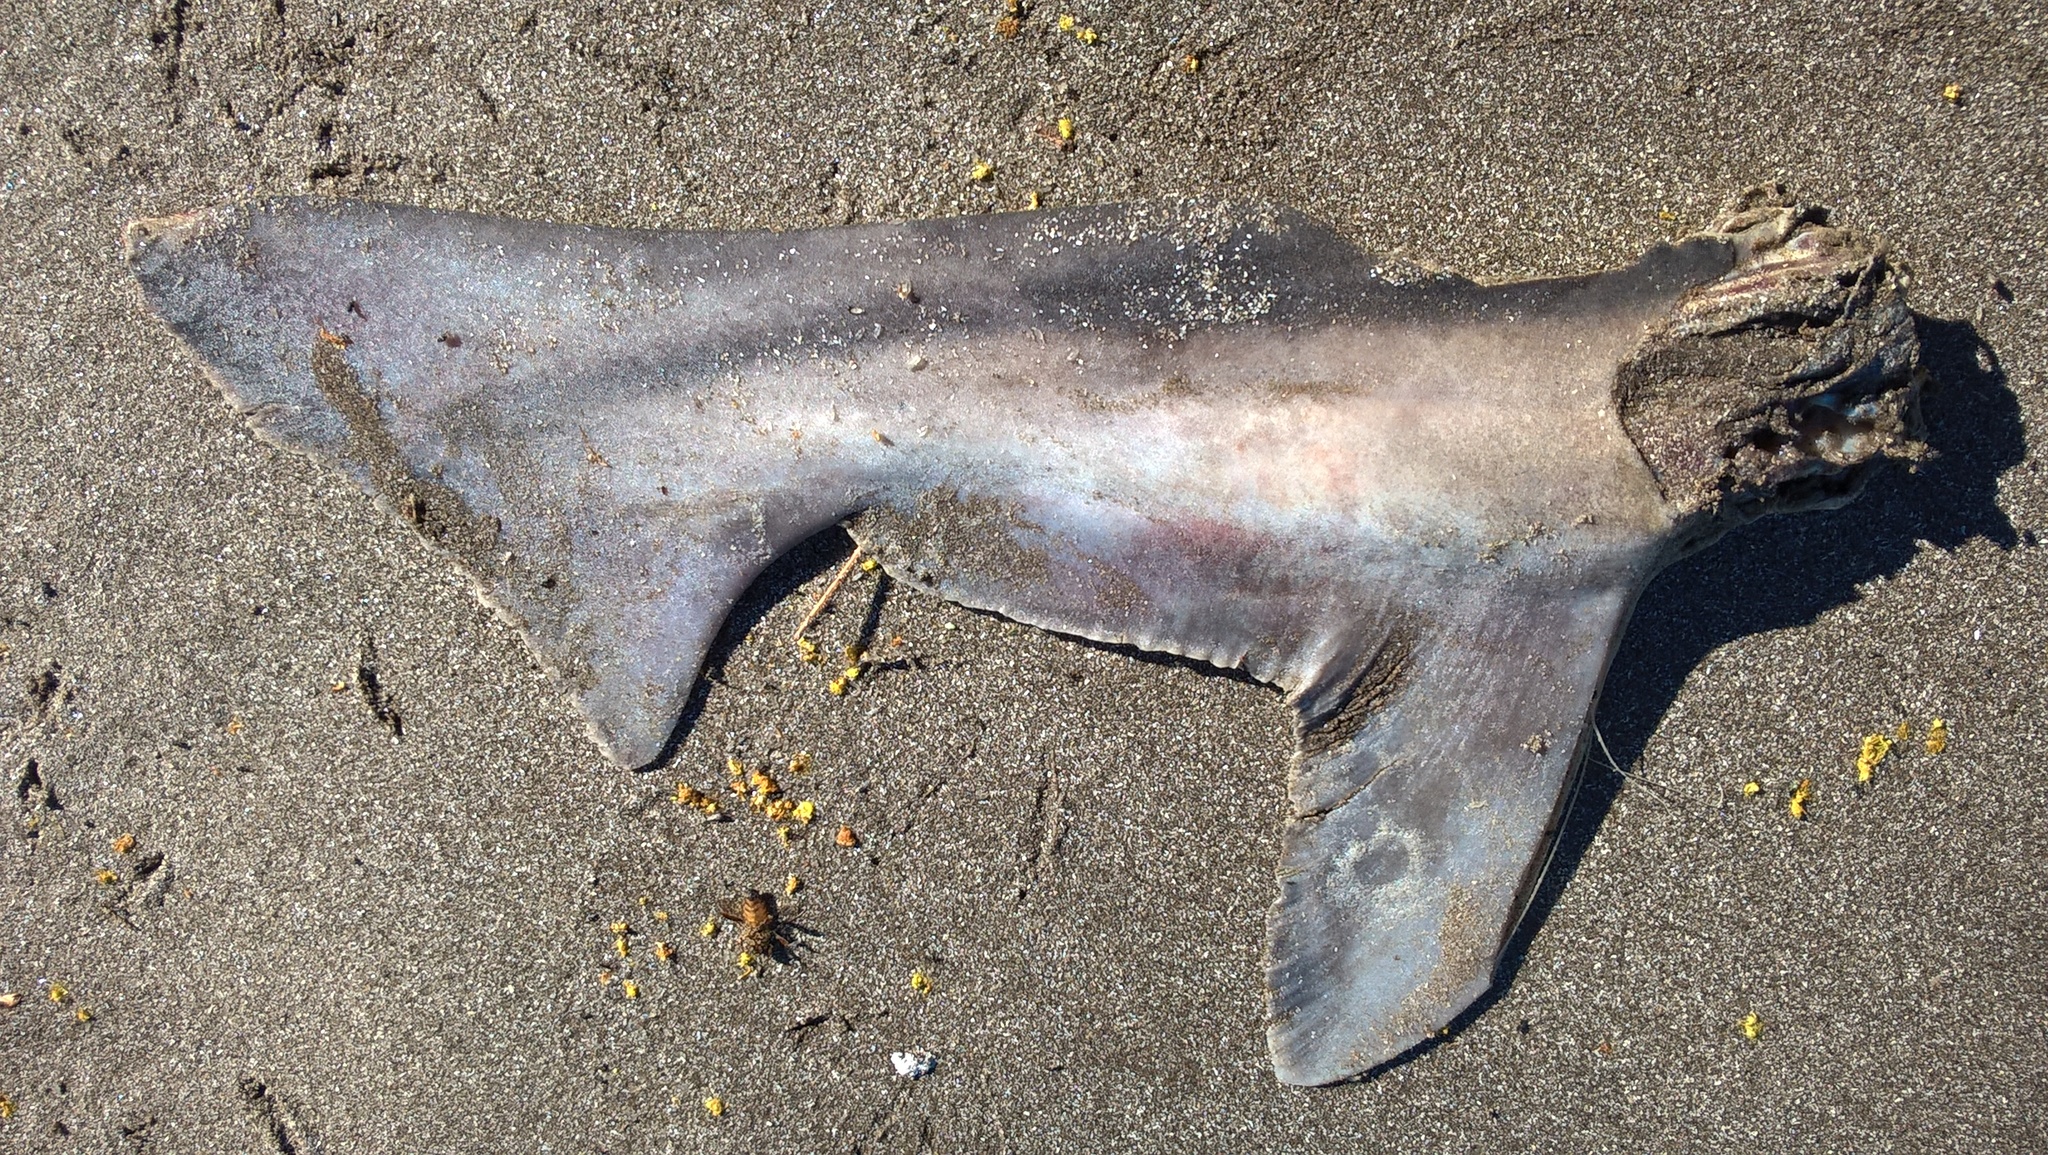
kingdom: Animalia
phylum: Chordata
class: Elasmobranchii
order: Carcharhiniformes
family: Triakidae
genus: Galeorhinus
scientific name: Galeorhinus galeus
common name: Tope
